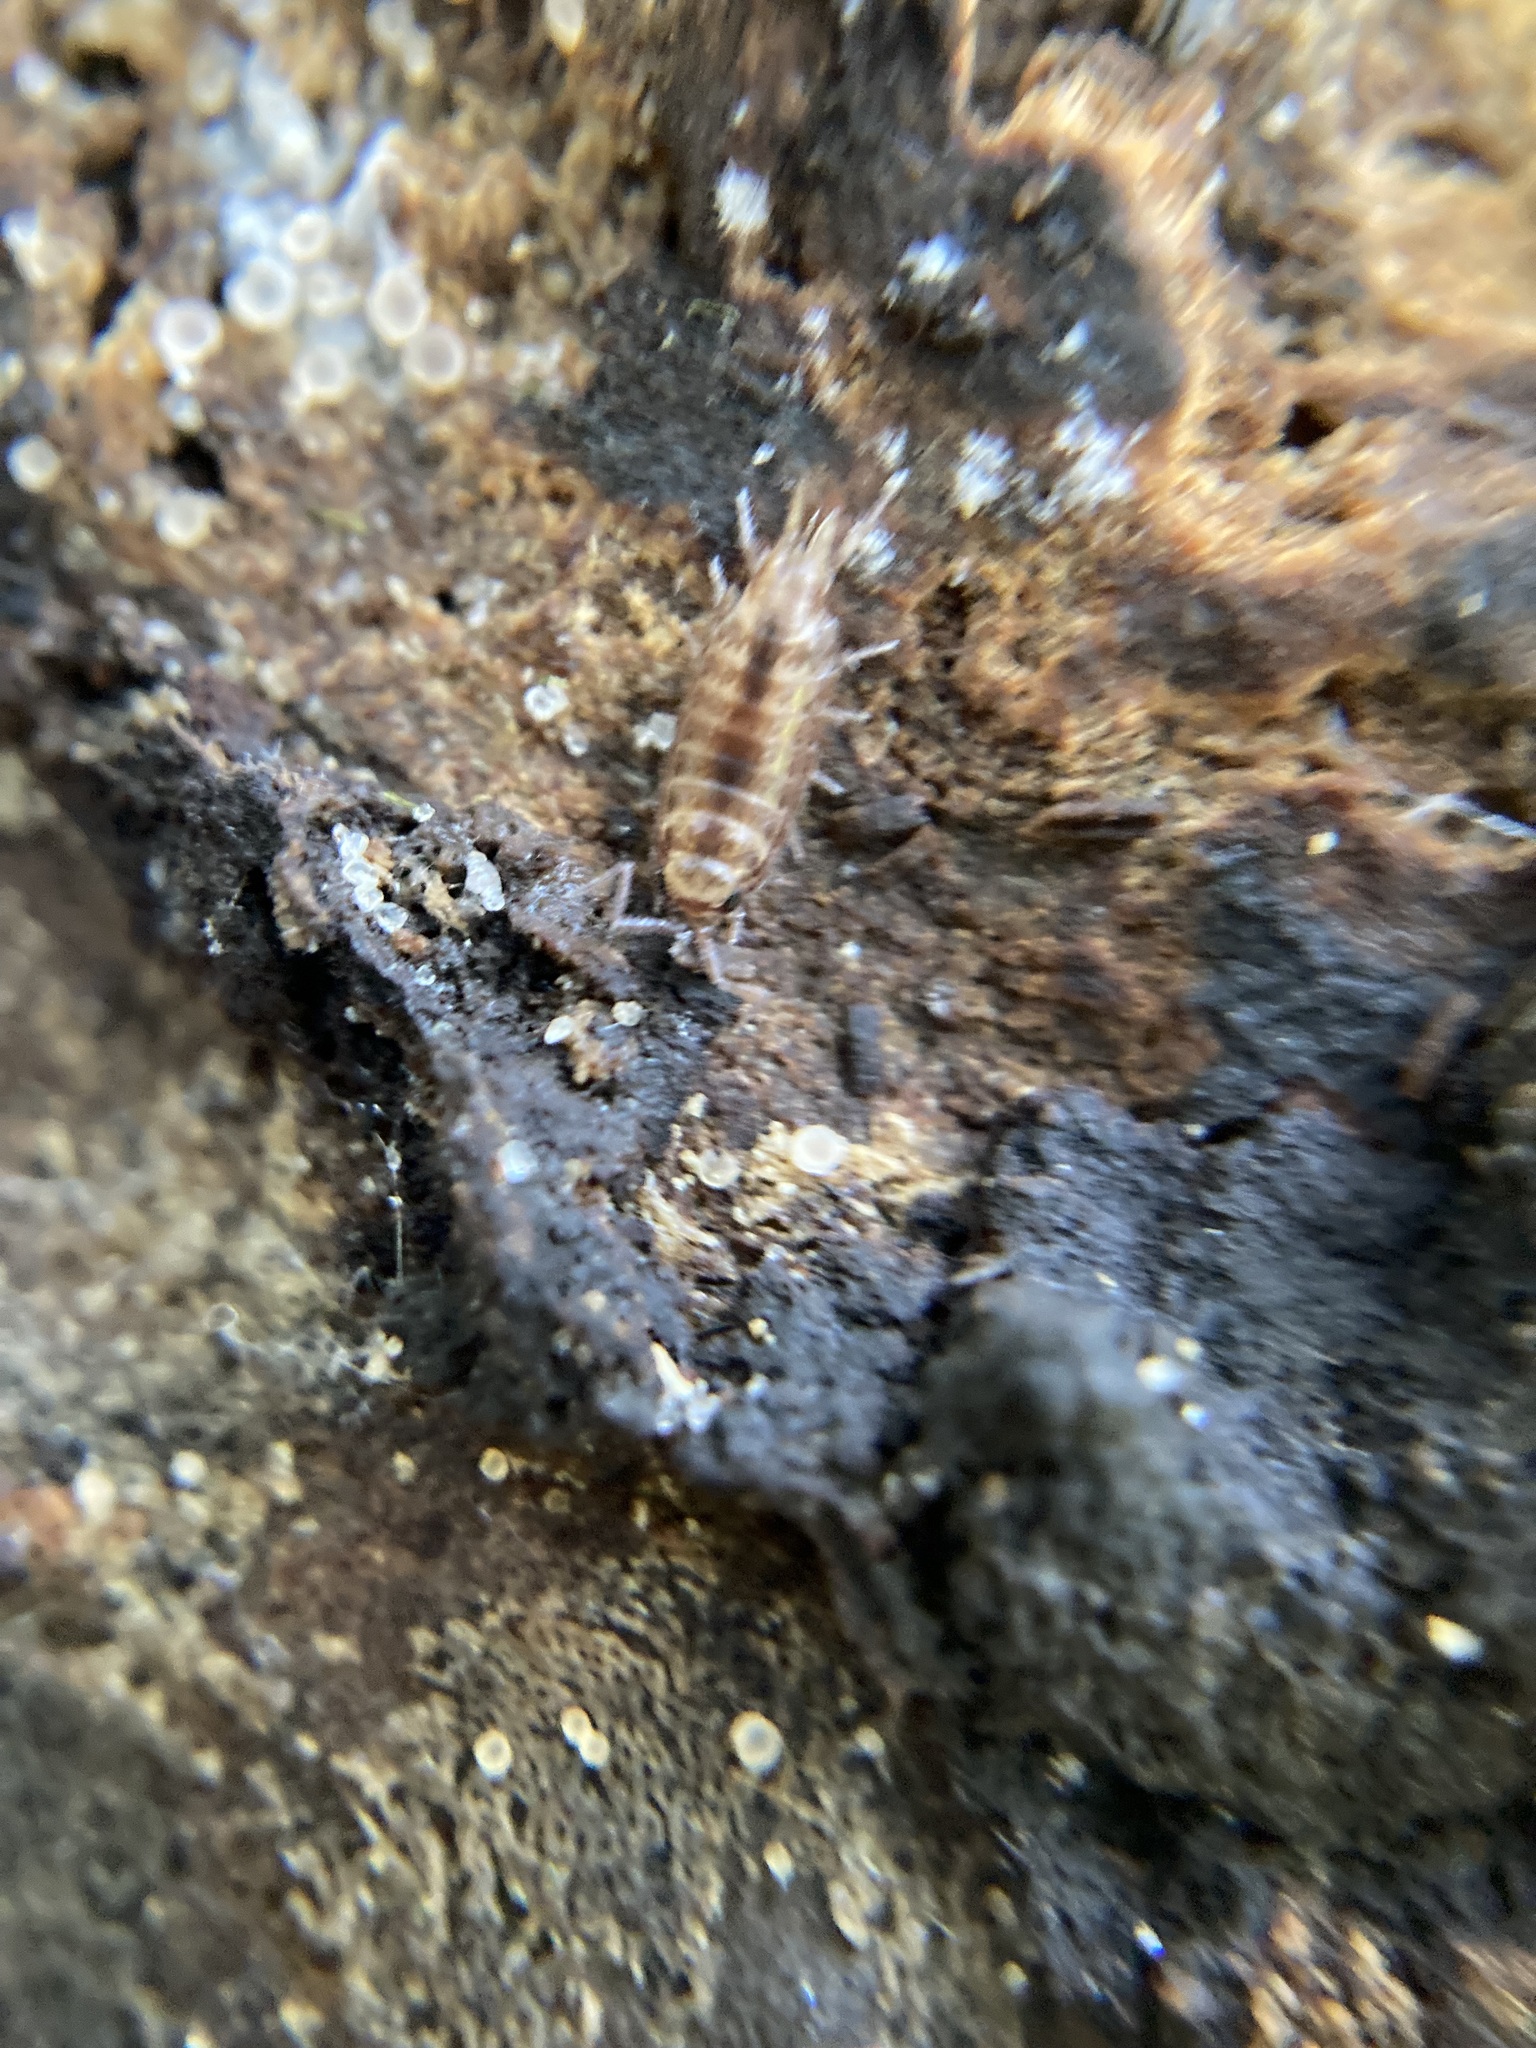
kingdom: Animalia
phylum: Arthropoda
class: Malacostraca
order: Isopoda
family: Philosciidae
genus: Atlantoscia
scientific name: Atlantoscia floridana
